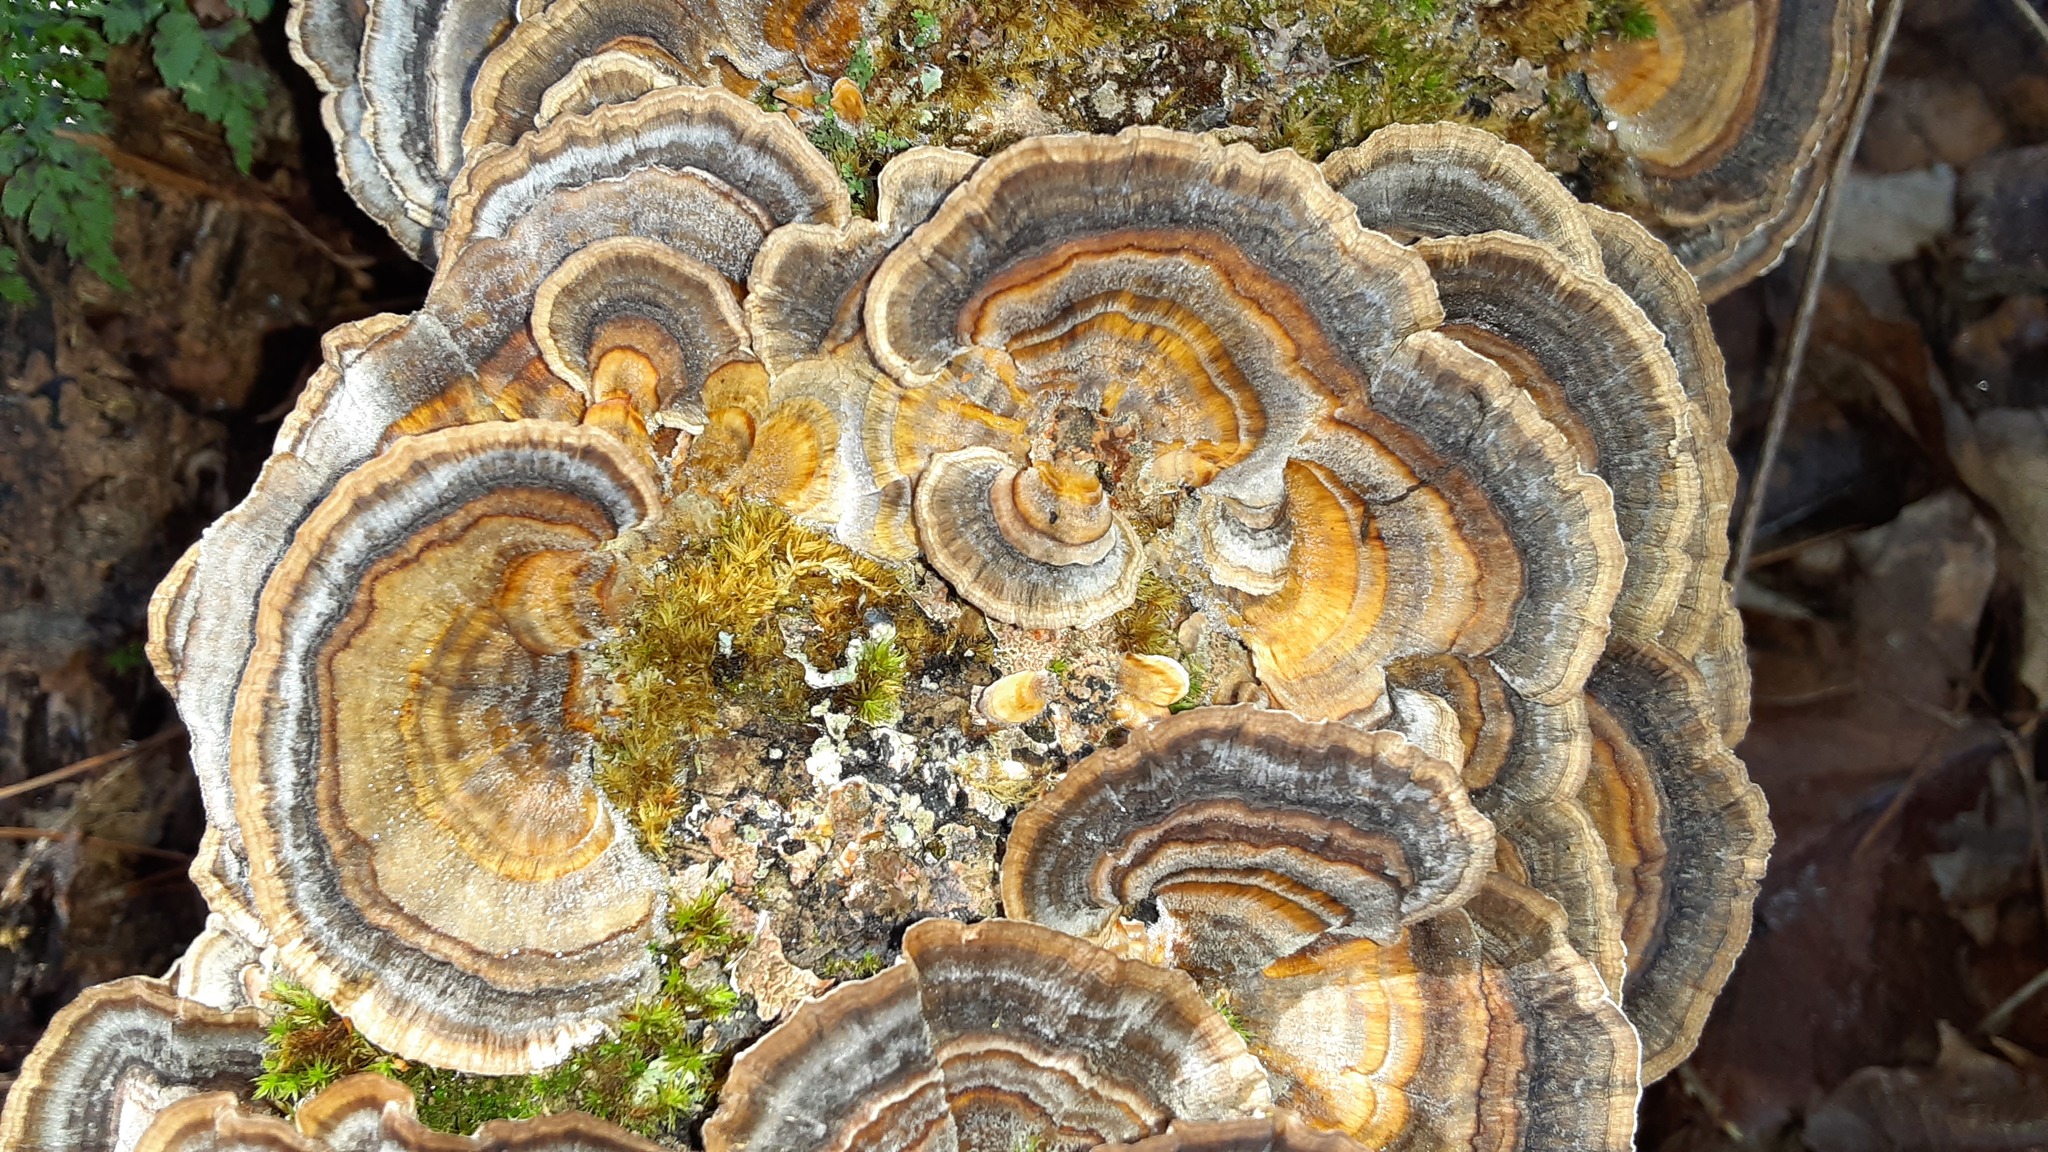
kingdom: Fungi
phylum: Basidiomycota
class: Agaricomycetes
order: Polyporales
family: Polyporaceae
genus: Trametes
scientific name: Trametes versicolor
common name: Turkeytail
